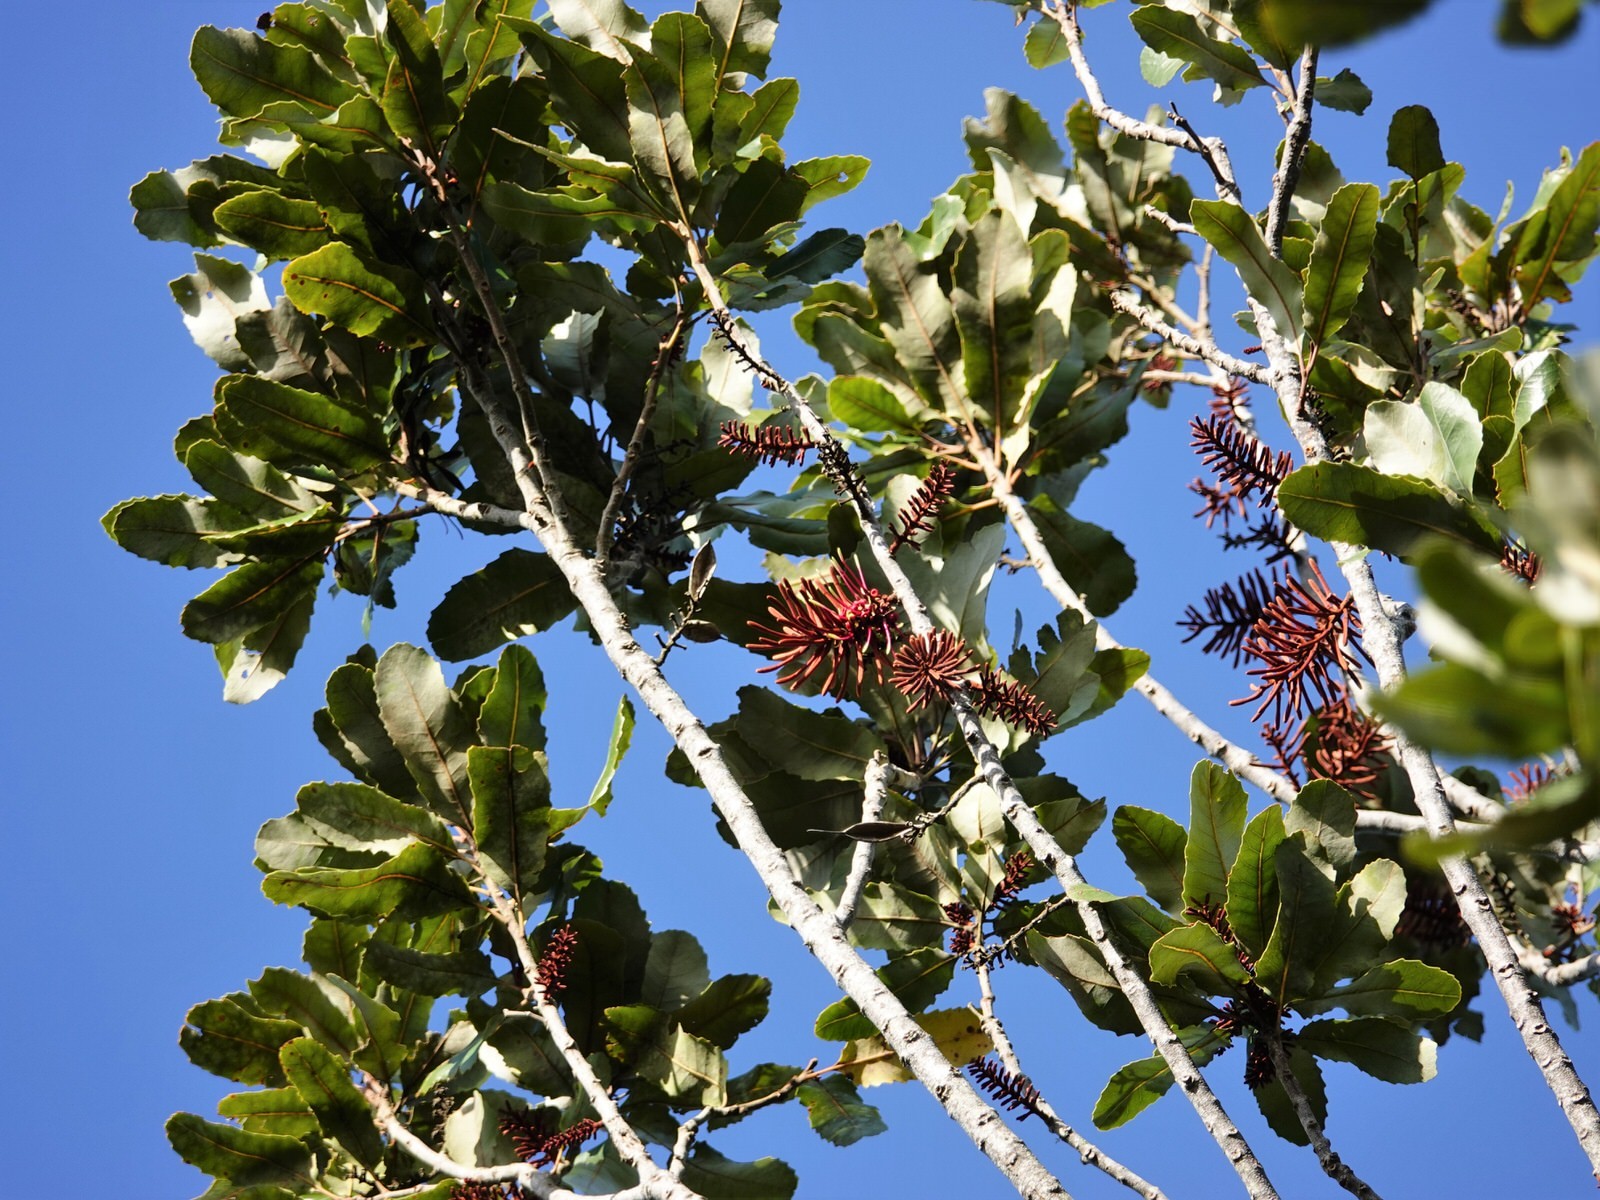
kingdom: Plantae
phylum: Tracheophyta
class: Magnoliopsida
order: Proteales
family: Proteaceae
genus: Knightia
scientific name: Knightia excelsa
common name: New zealand-honeysuckle
